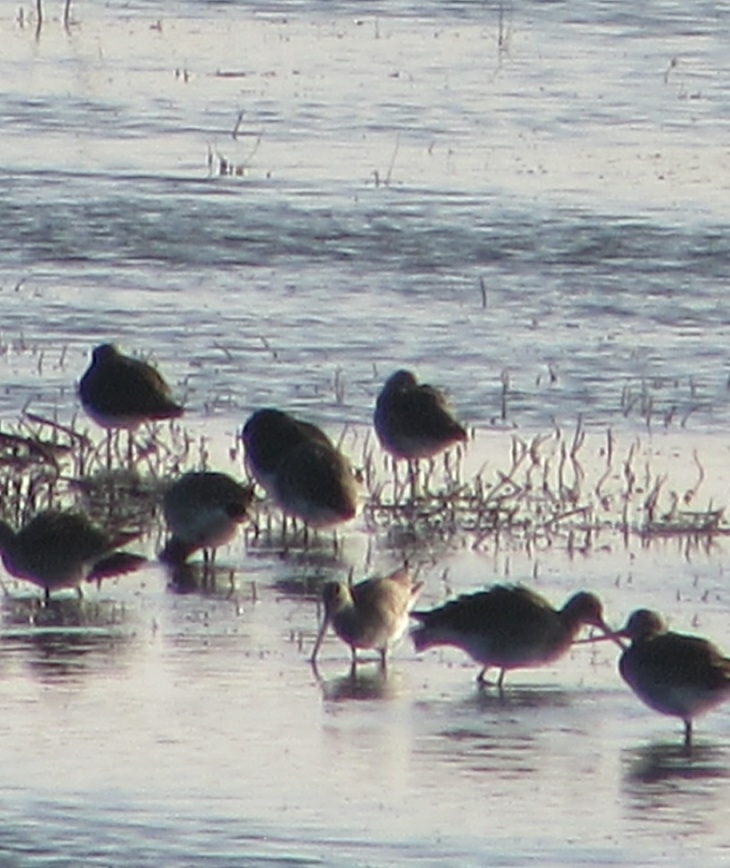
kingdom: Animalia
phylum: Chordata
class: Aves
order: Charadriiformes
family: Scolopacidae
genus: Limosa
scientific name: Limosa limosa
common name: Black-tailed godwit
